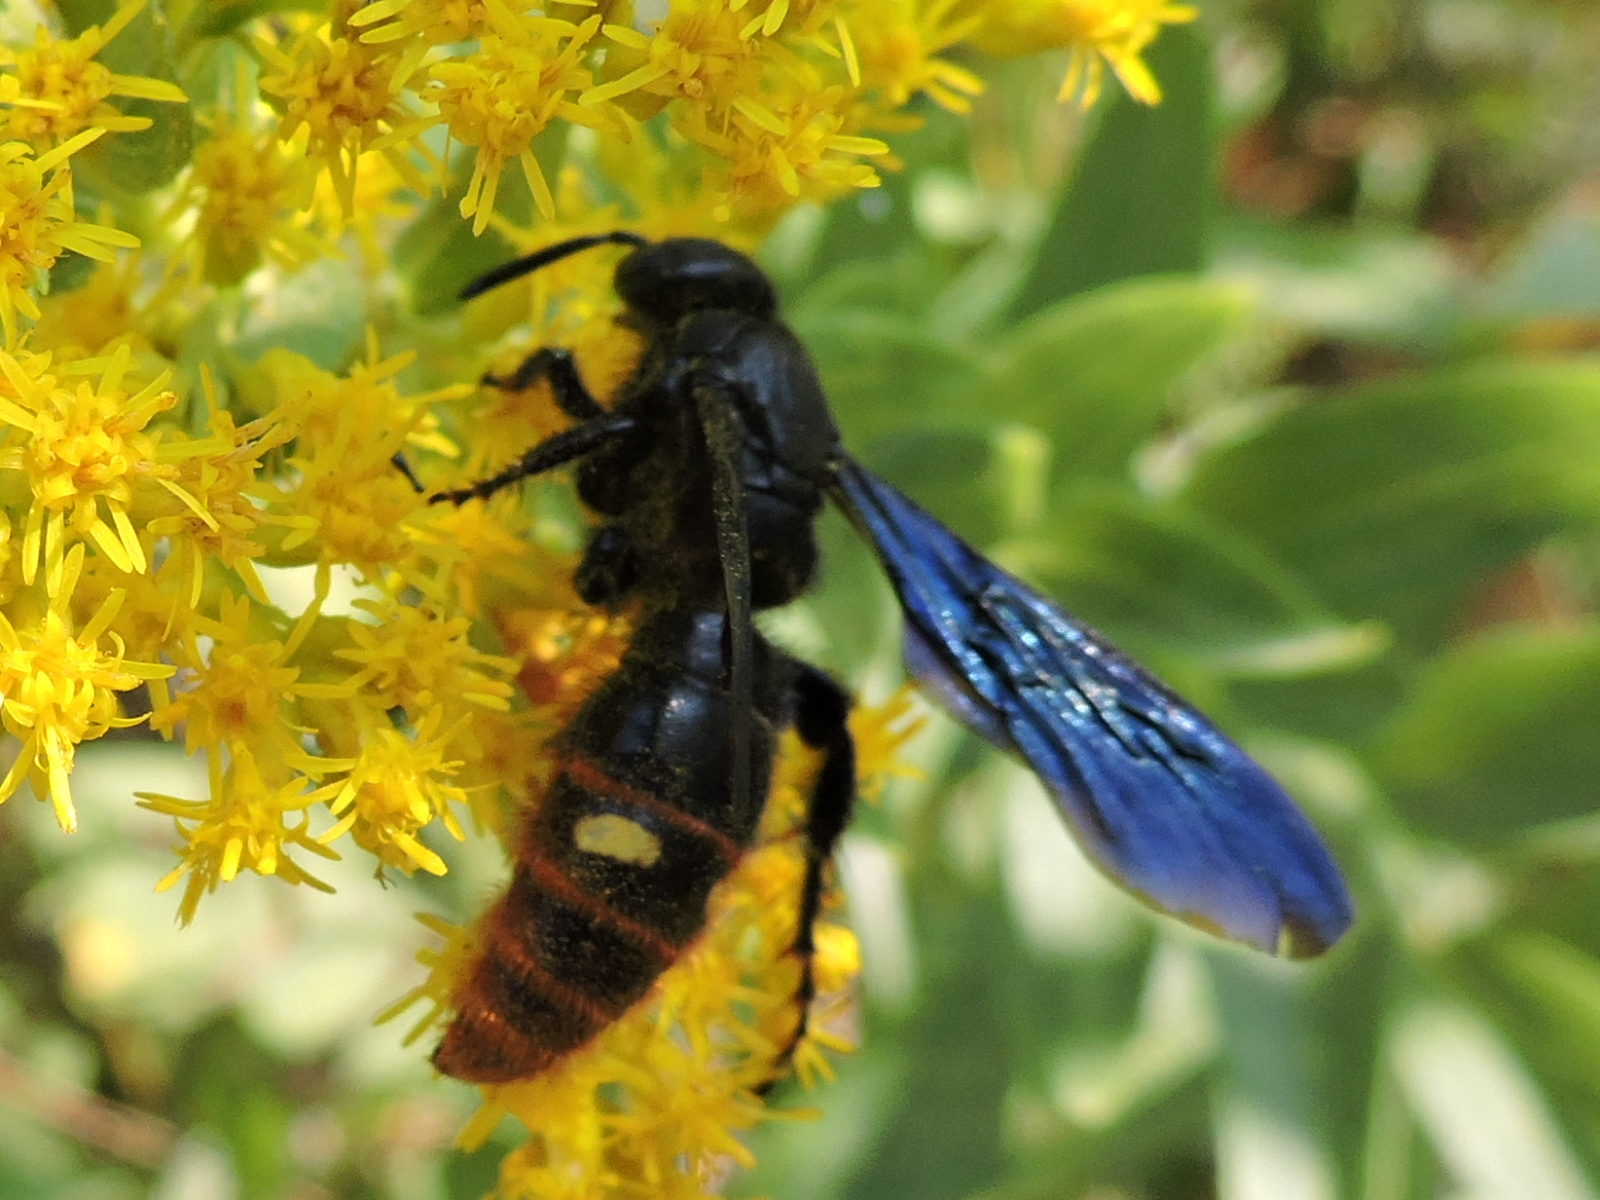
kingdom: Animalia
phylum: Arthropoda
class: Insecta
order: Hymenoptera
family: Scoliidae
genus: Scolia
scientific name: Scolia dubia
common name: Blue-winged scoliid wasp
